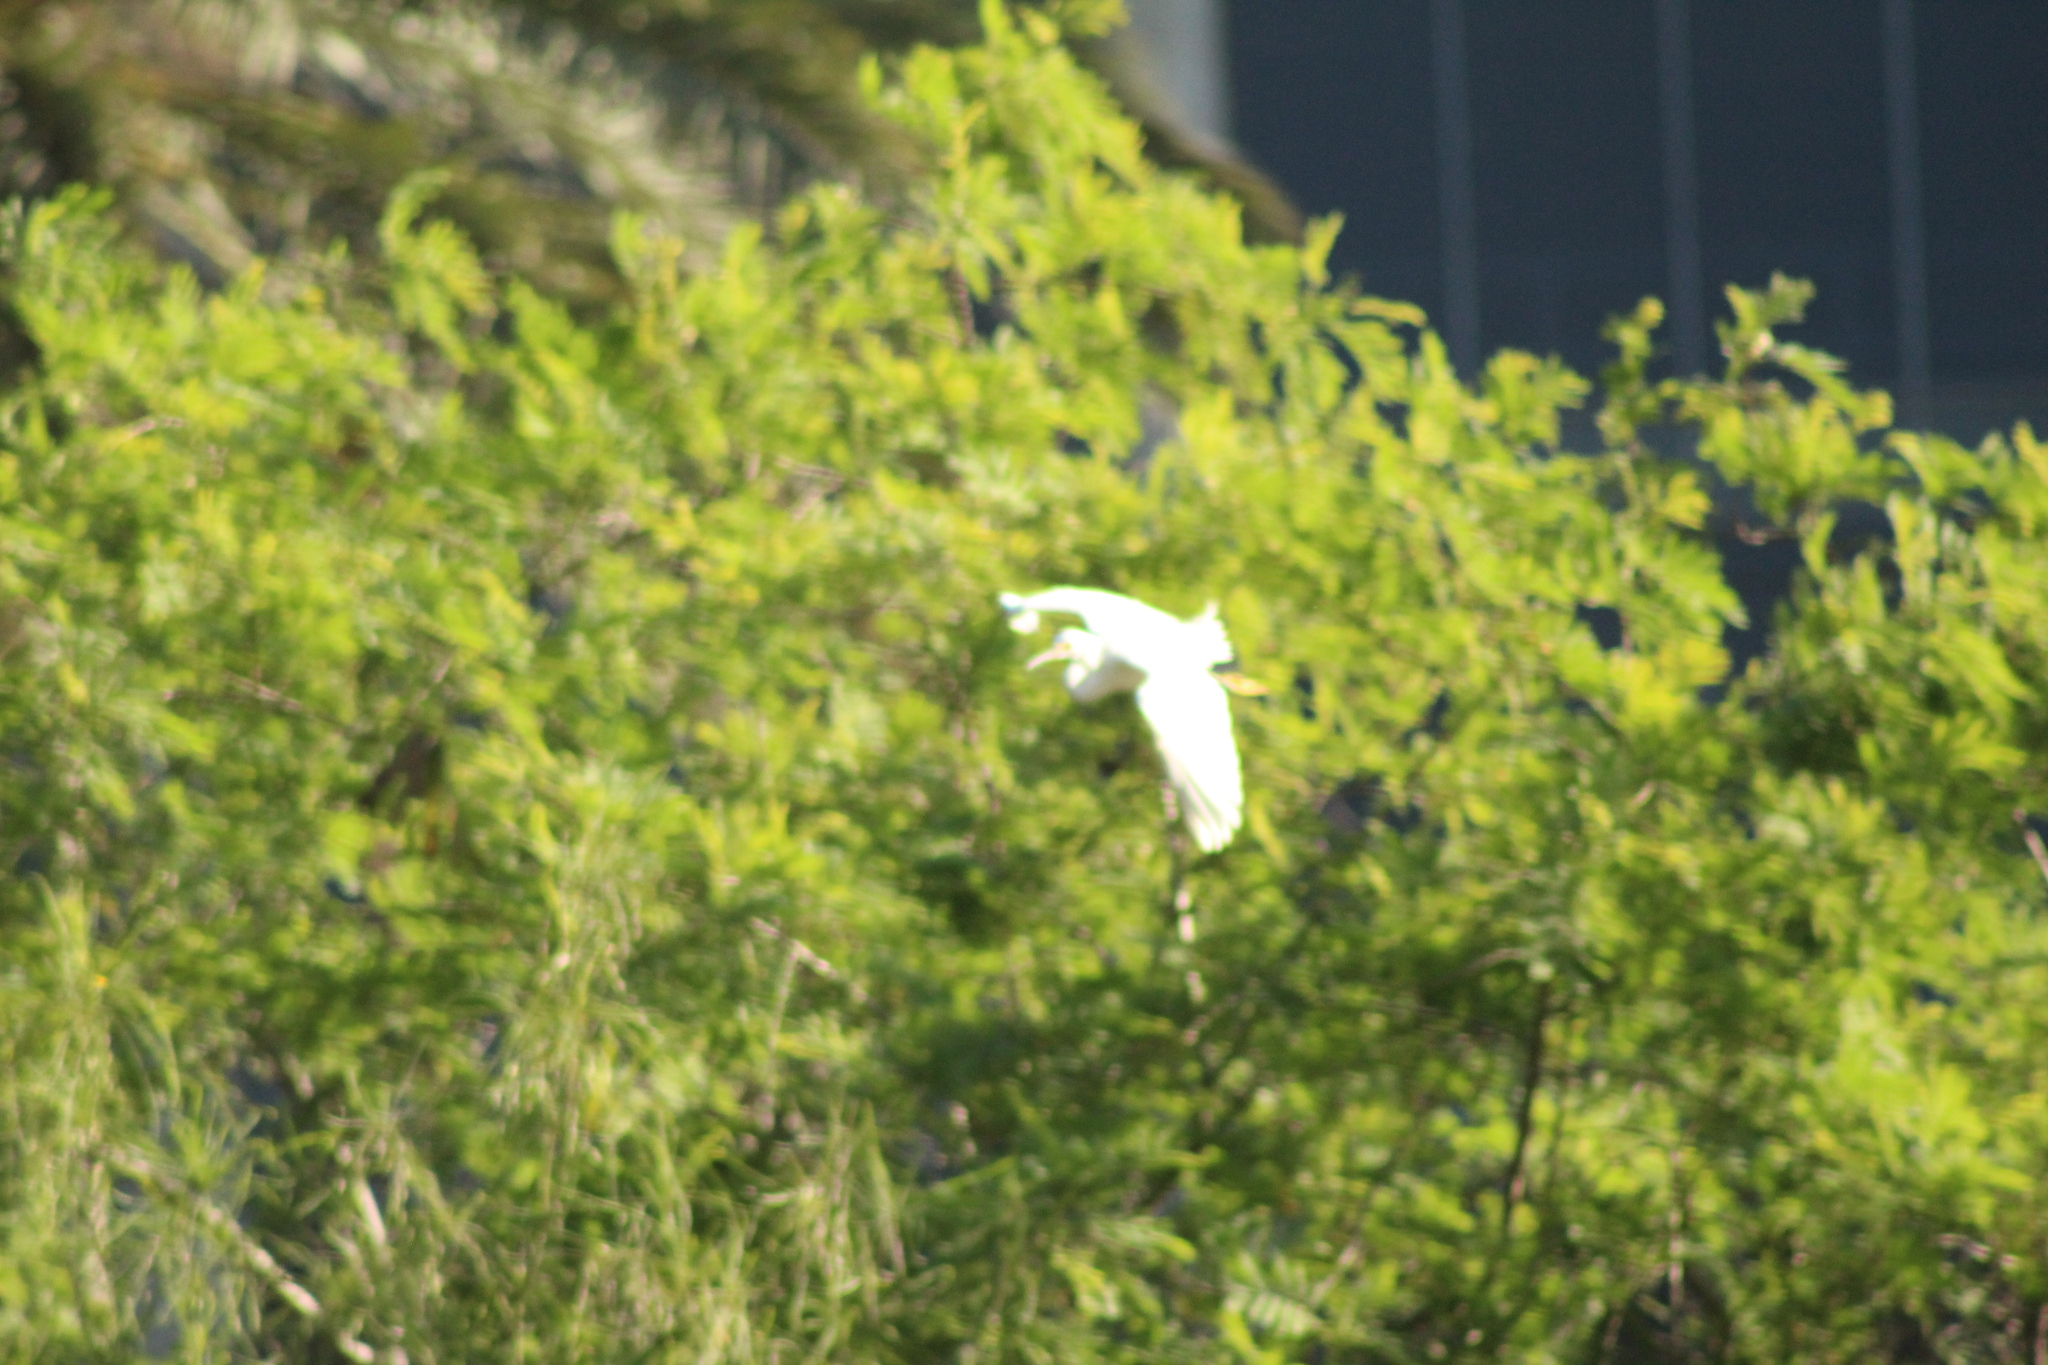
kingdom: Animalia
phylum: Chordata
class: Aves
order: Pelecaniformes
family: Ardeidae
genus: Egretta
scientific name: Egretta thula
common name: Snowy egret
